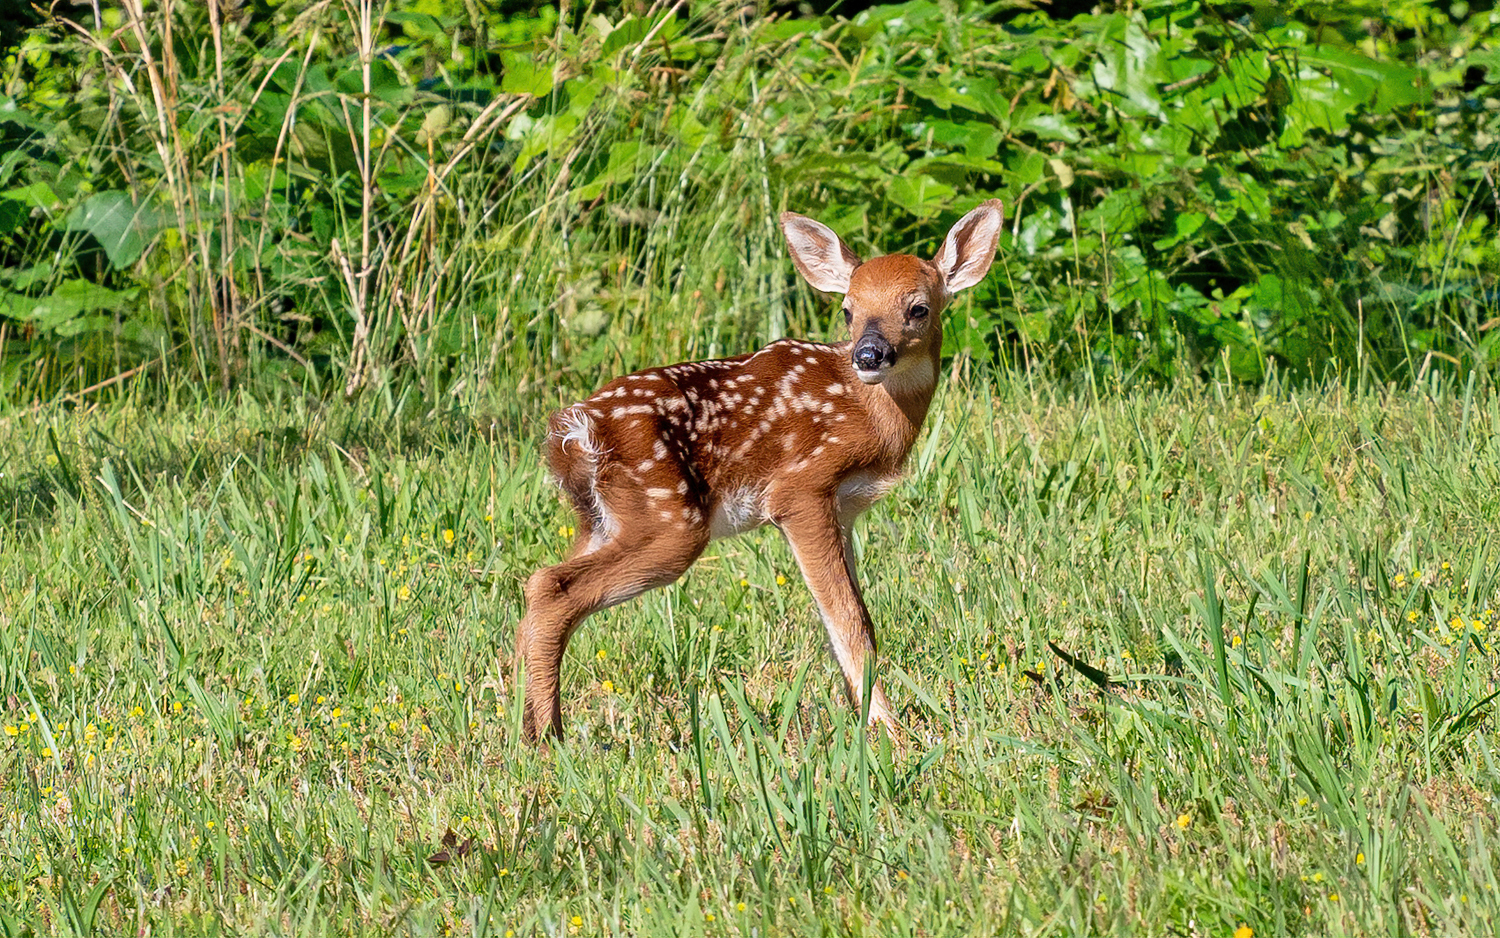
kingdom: Animalia
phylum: Chordata
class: Mammalia
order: Artiodactyla
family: Cervidae
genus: Odocoileus
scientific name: Odocoileus virginianus
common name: White-tailed deer
